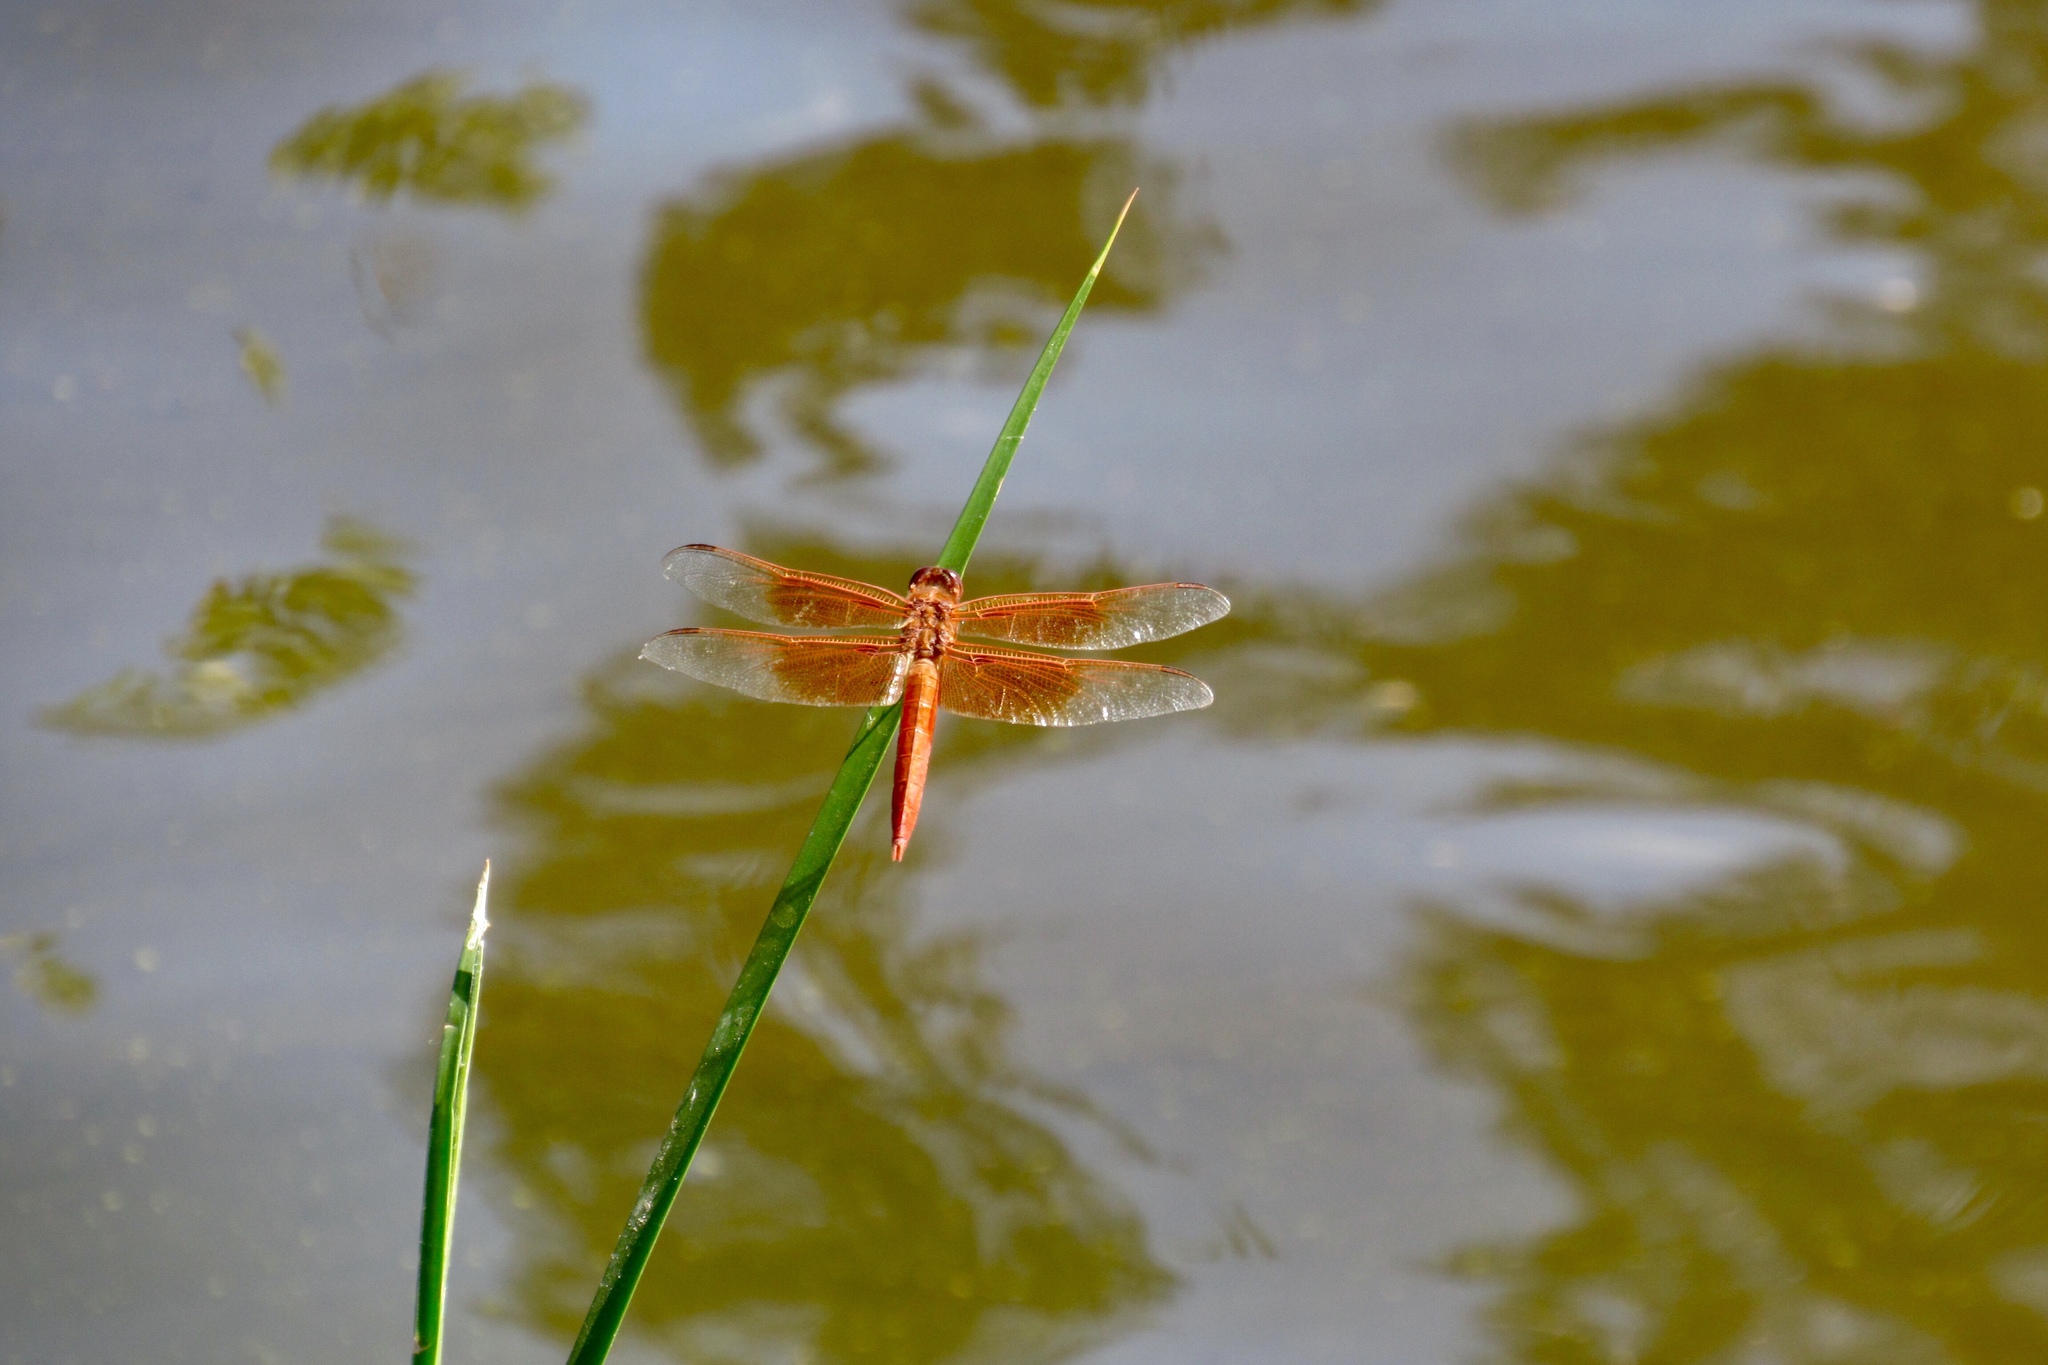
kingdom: Animalia
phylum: Arthropoda
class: Insecta
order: Odonata
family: Libellulidae
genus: Libellula
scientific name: Libellula saturata
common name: Flame skimmer
